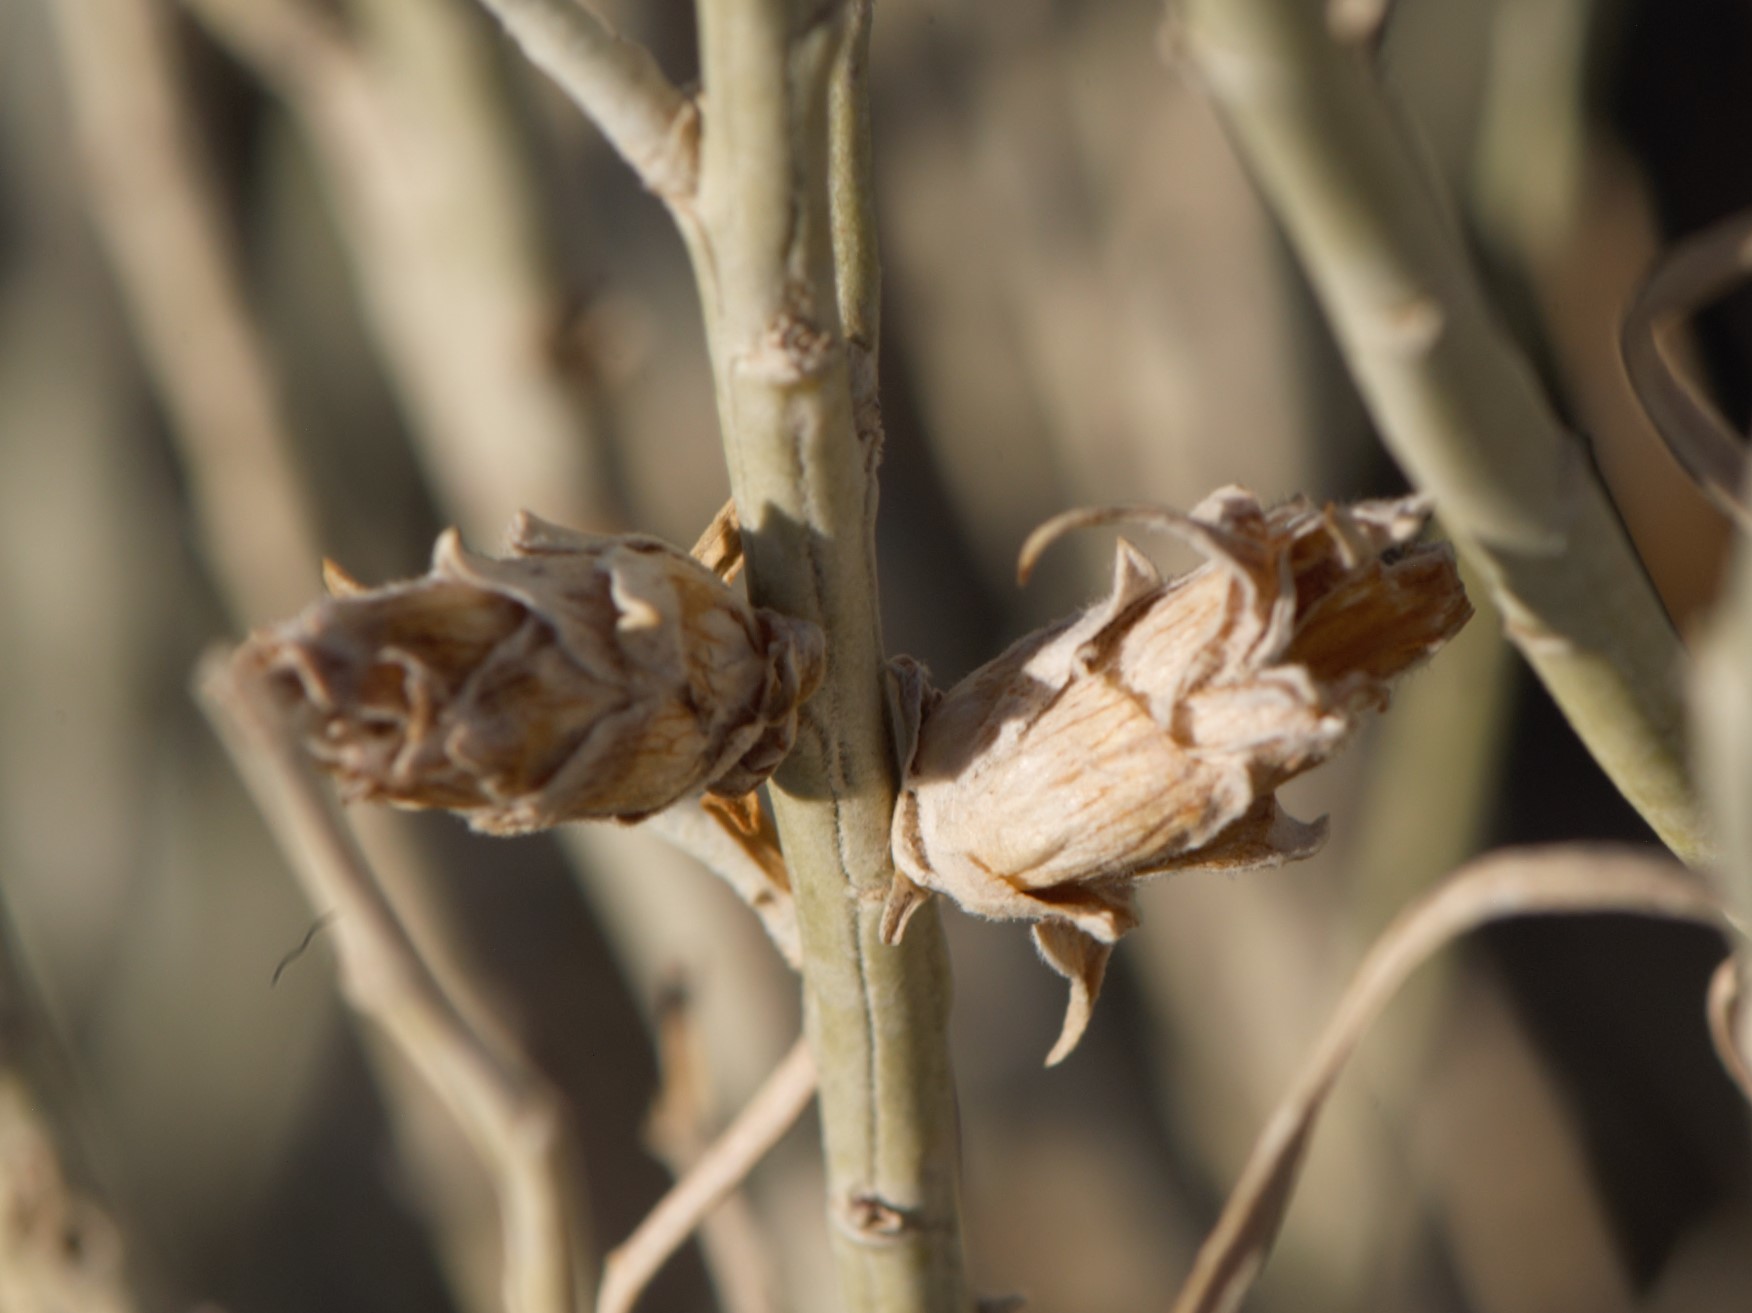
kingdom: Animalia
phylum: Arthropoda
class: Insecta
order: Diptera
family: Cecidomyiidae
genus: Rhopalomyia
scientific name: Rhopalomyia ericameriae
